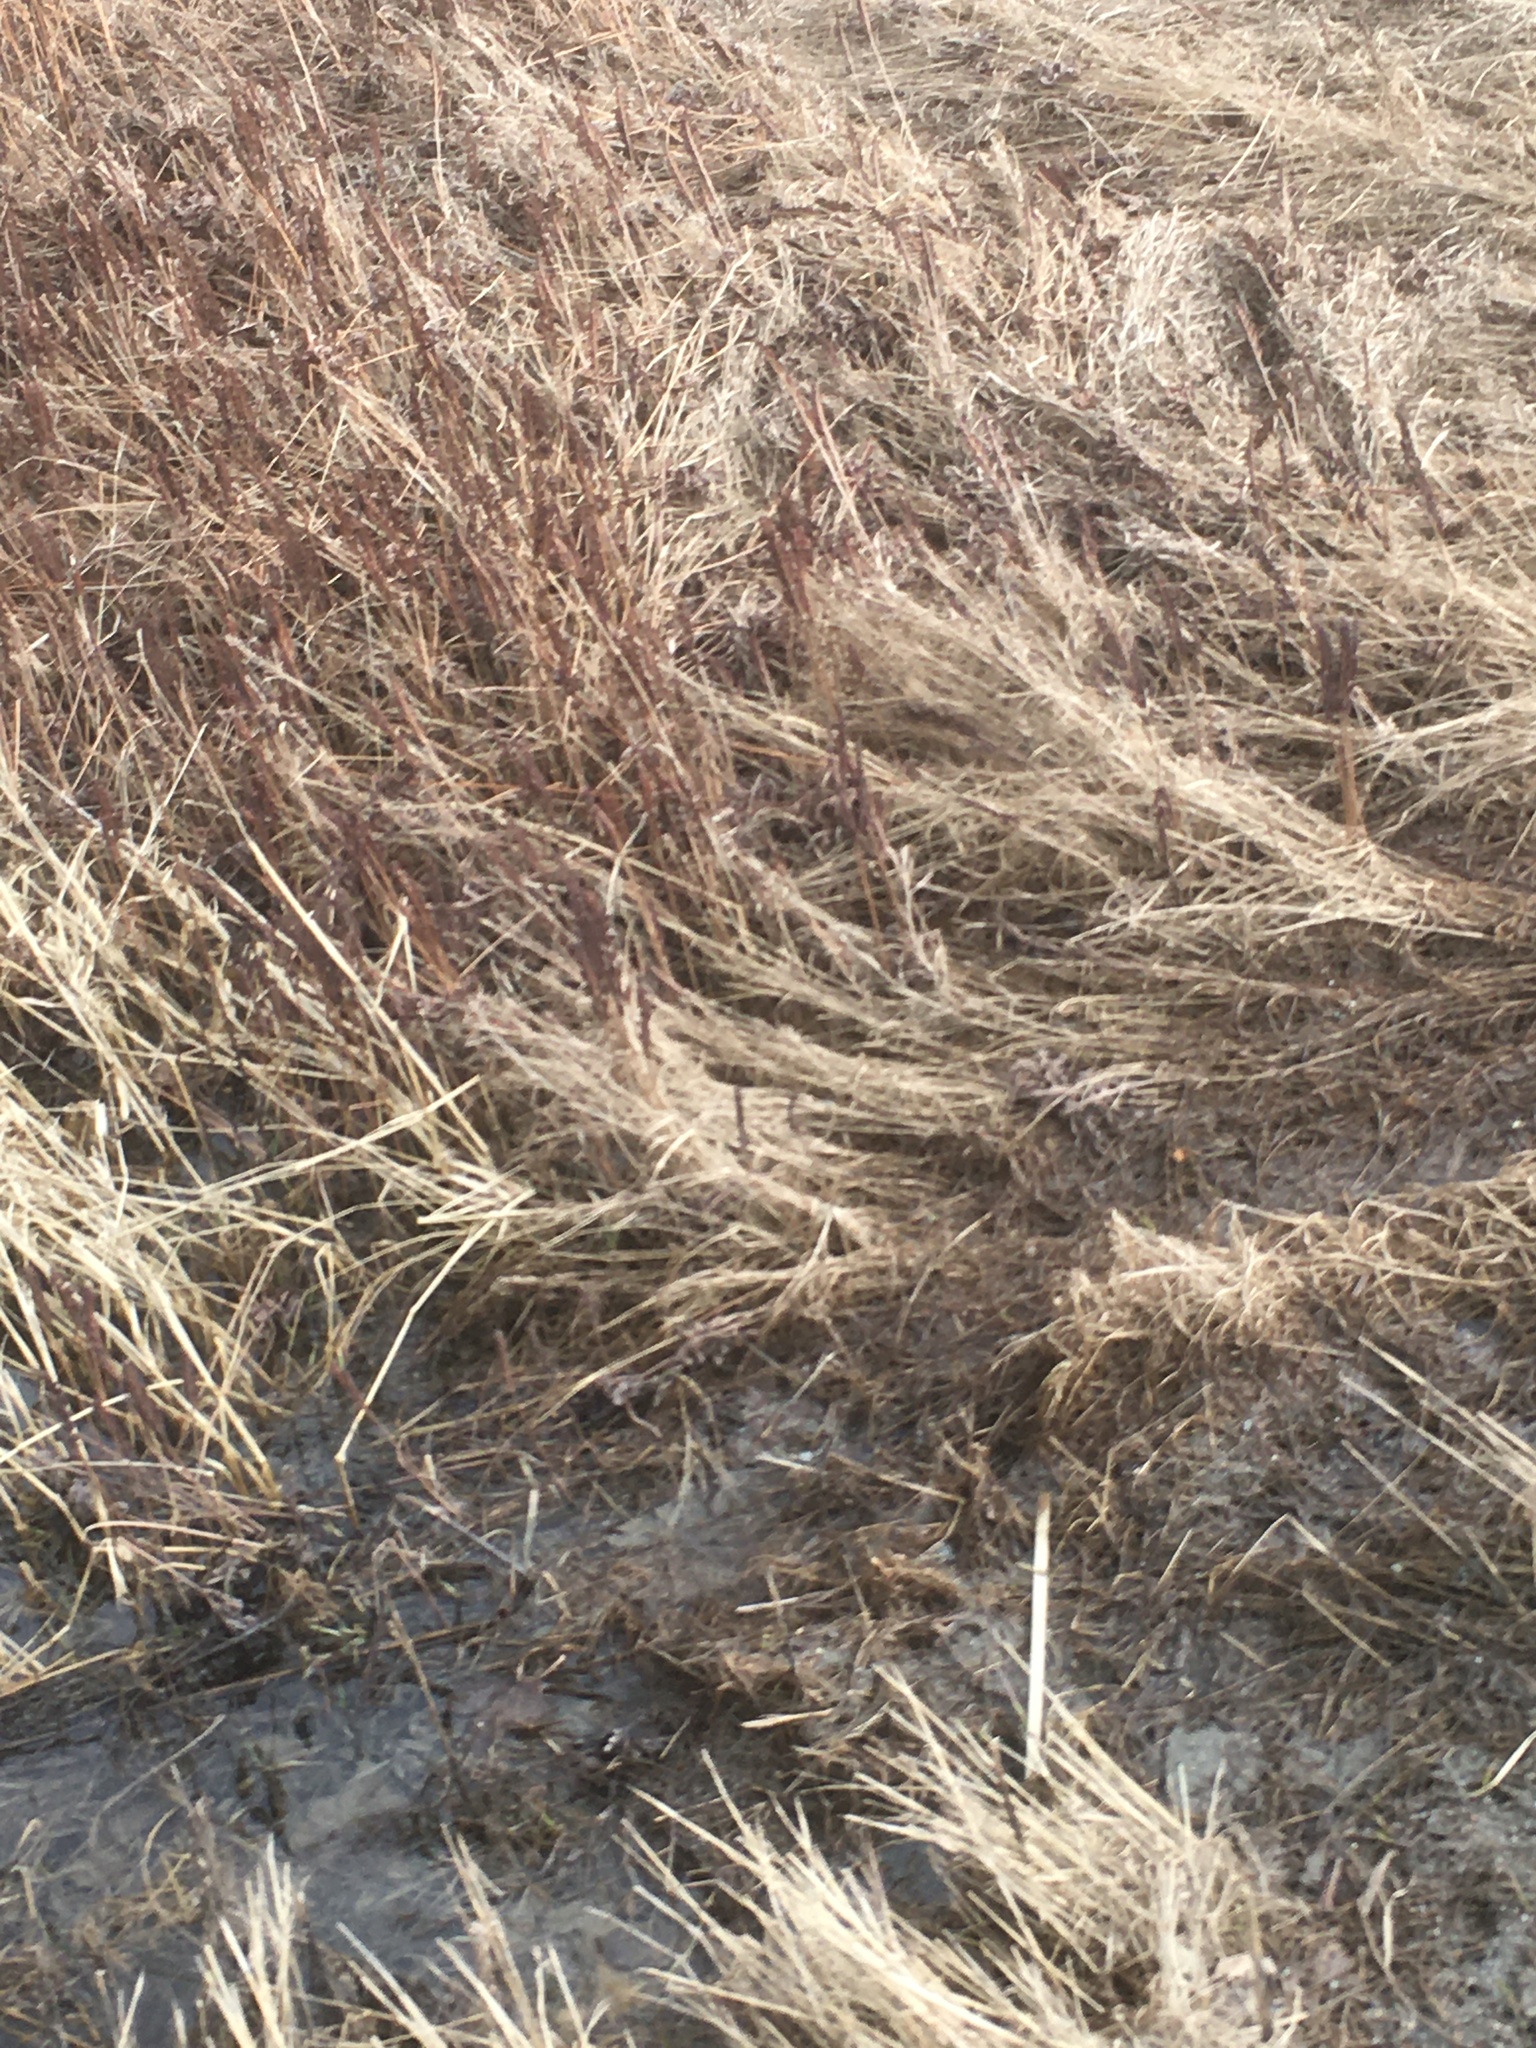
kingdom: Plantae
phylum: Tracheophyta
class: Polypodiopsida
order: Polypodiales
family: Onocleaceae
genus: Onoclea
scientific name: Onoclea sensibilis
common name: Sensitive fern
